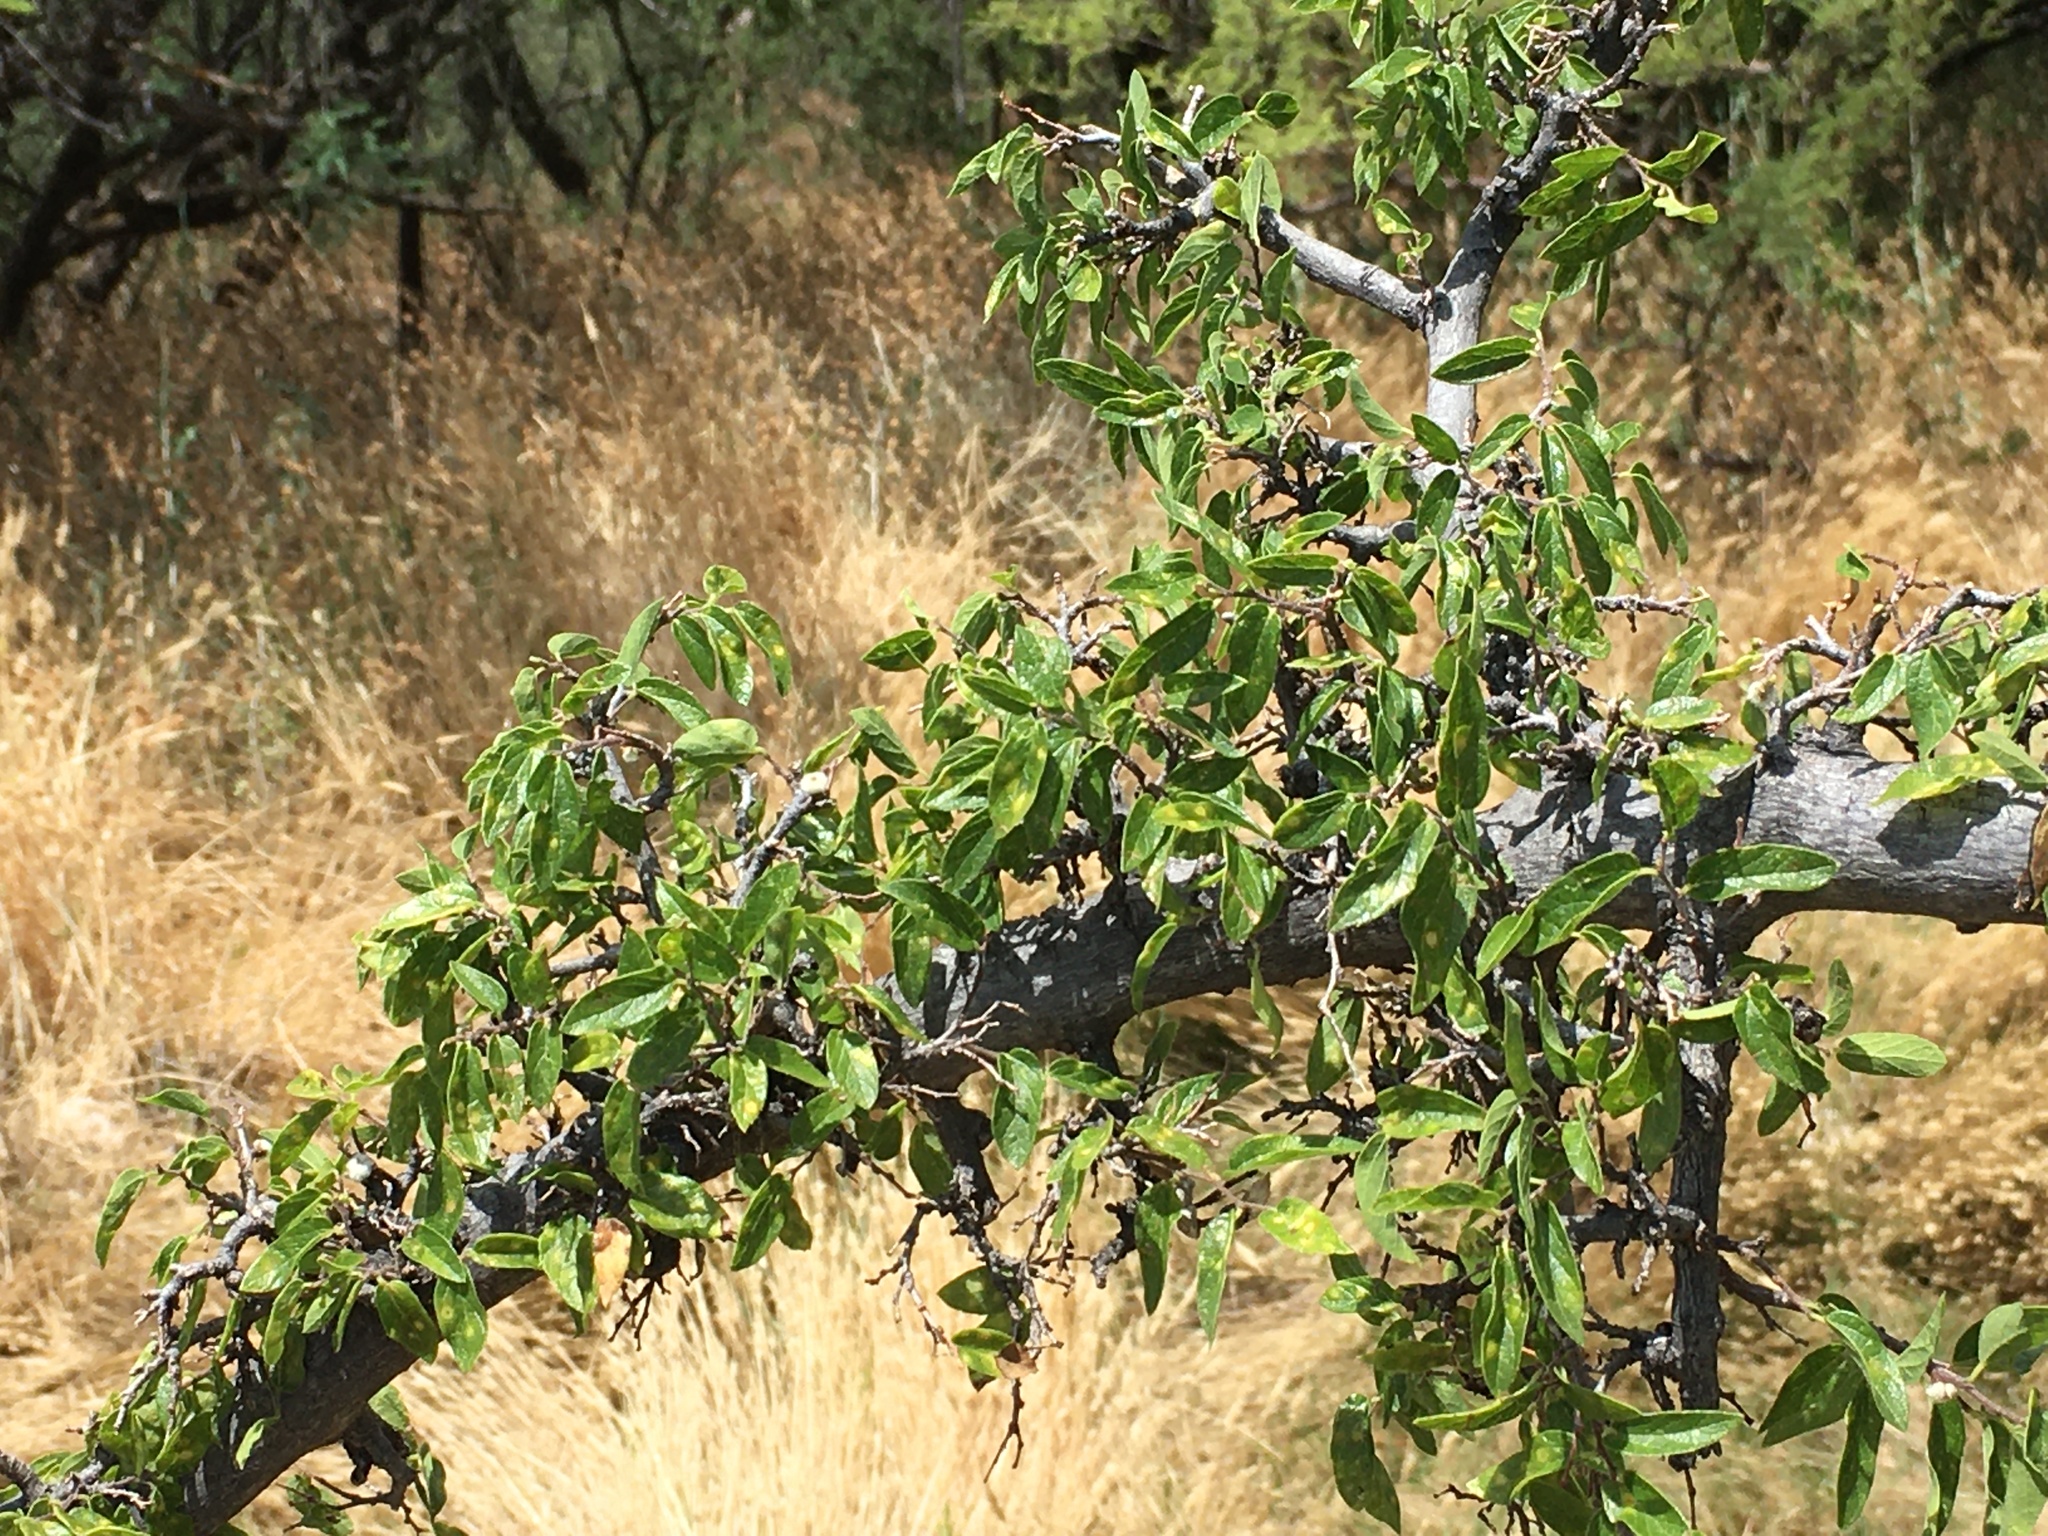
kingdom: Plantae
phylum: Tracheophyta
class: Magnoliopsida
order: Rosales
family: Cannabaceae
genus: Celtis
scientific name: Celtis reticulata
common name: Netleaf hackberry
